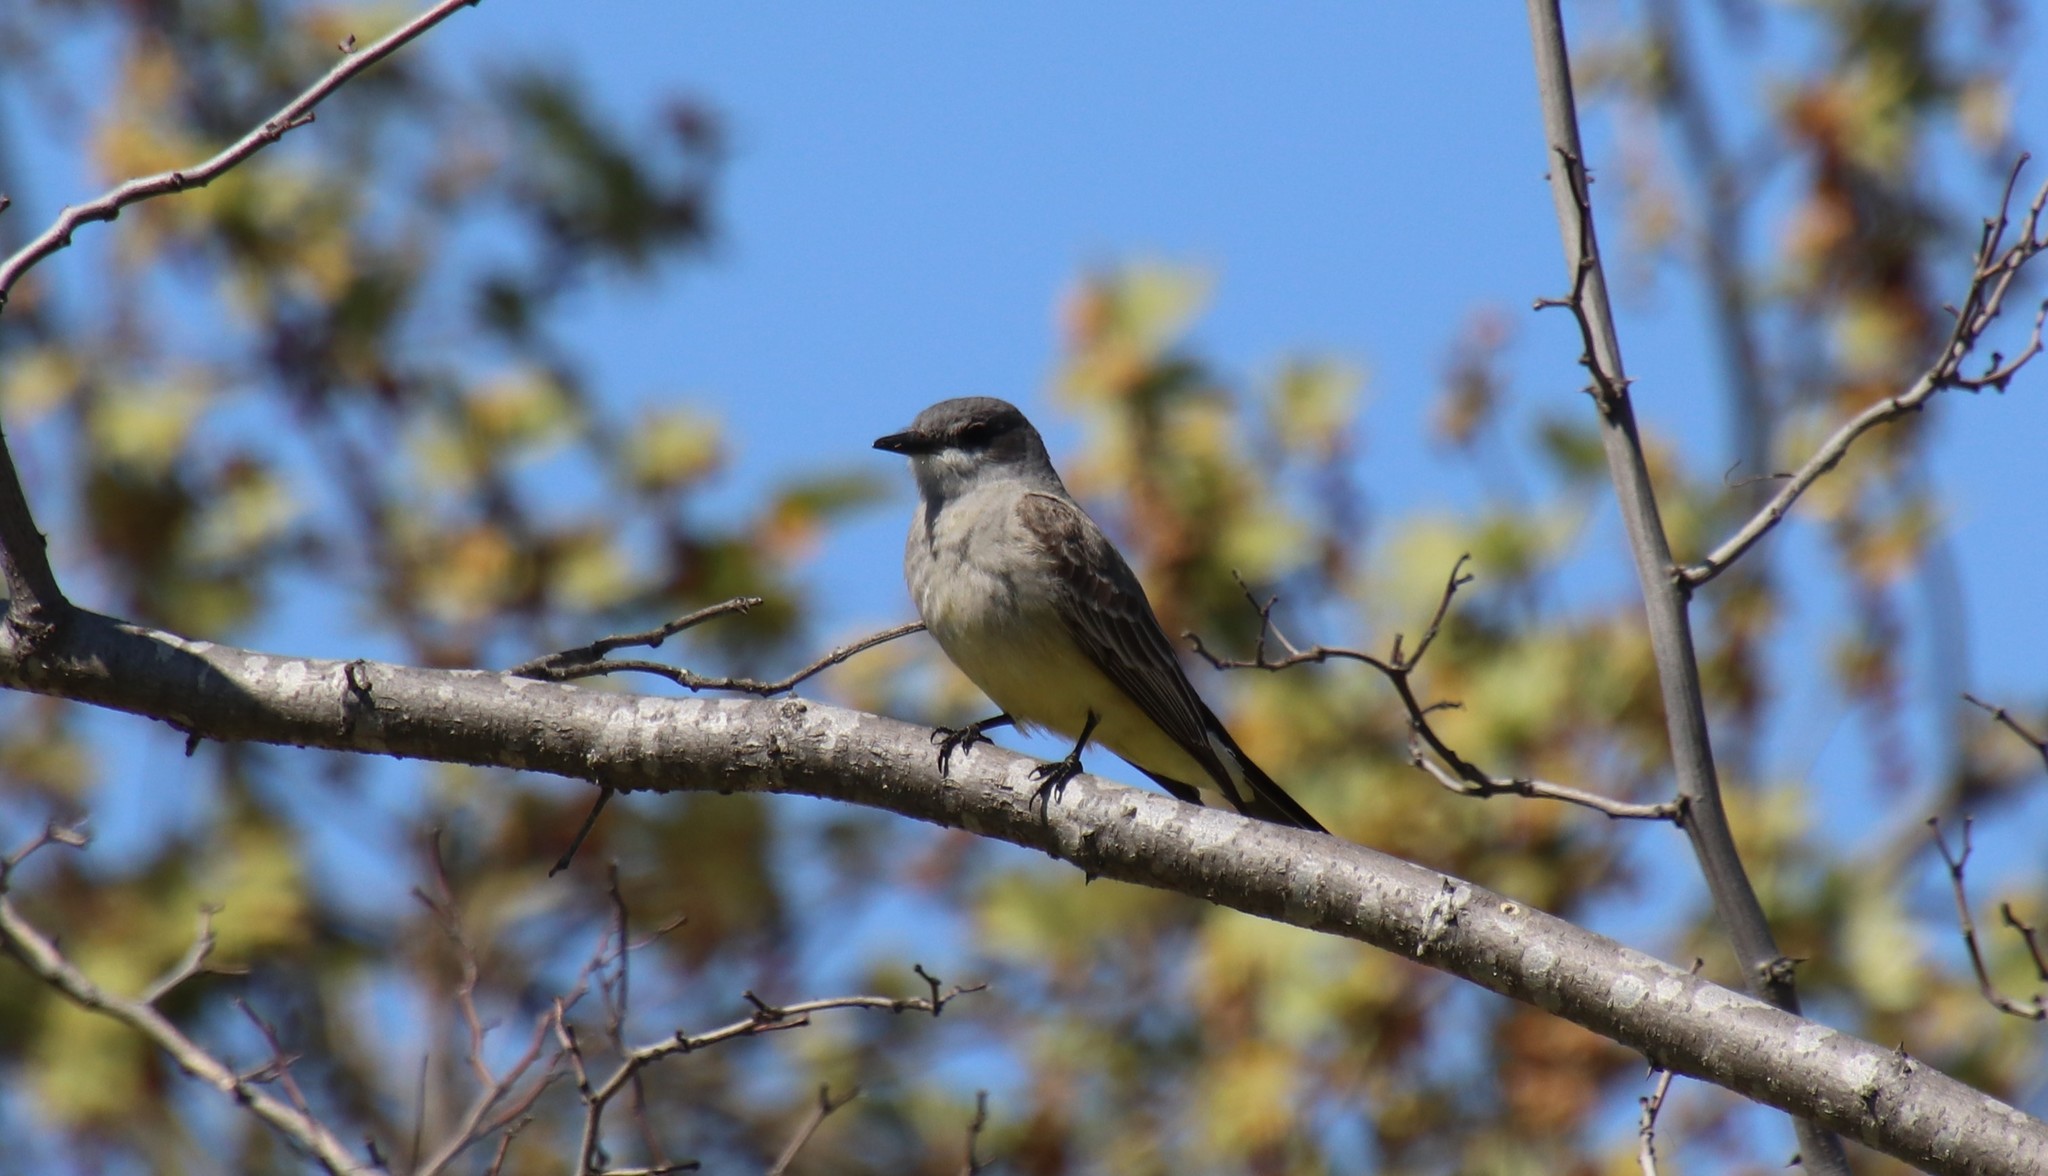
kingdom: Animalia
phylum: Chordata
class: Aves
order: Passeriformes
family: Tyrannidae
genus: Tyrannus
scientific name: Tyrannus vociferans
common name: Cassin's kingbird
